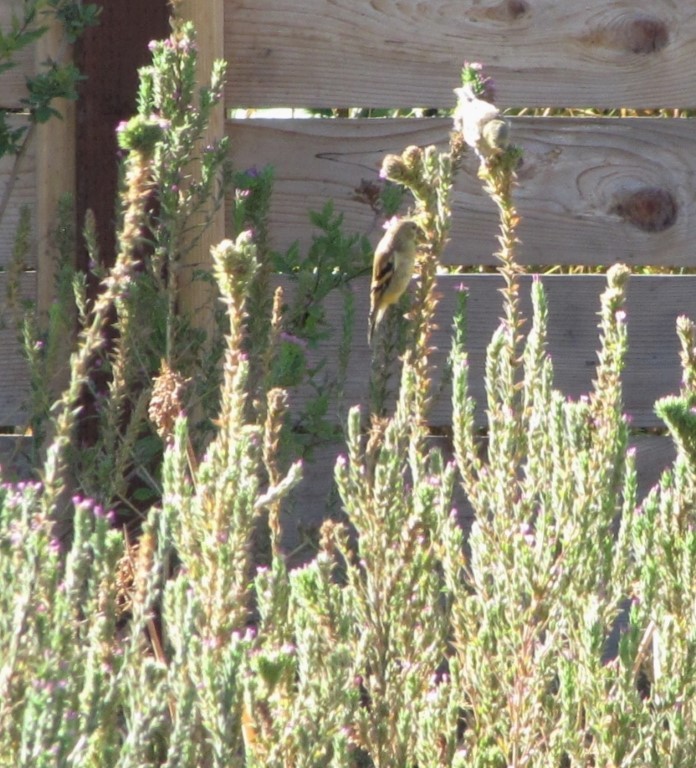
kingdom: Animalia
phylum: Chordata
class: Aves
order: Passeriformes
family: Fringillidae
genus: Spinus
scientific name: Spinus tristis
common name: American goldfinch
